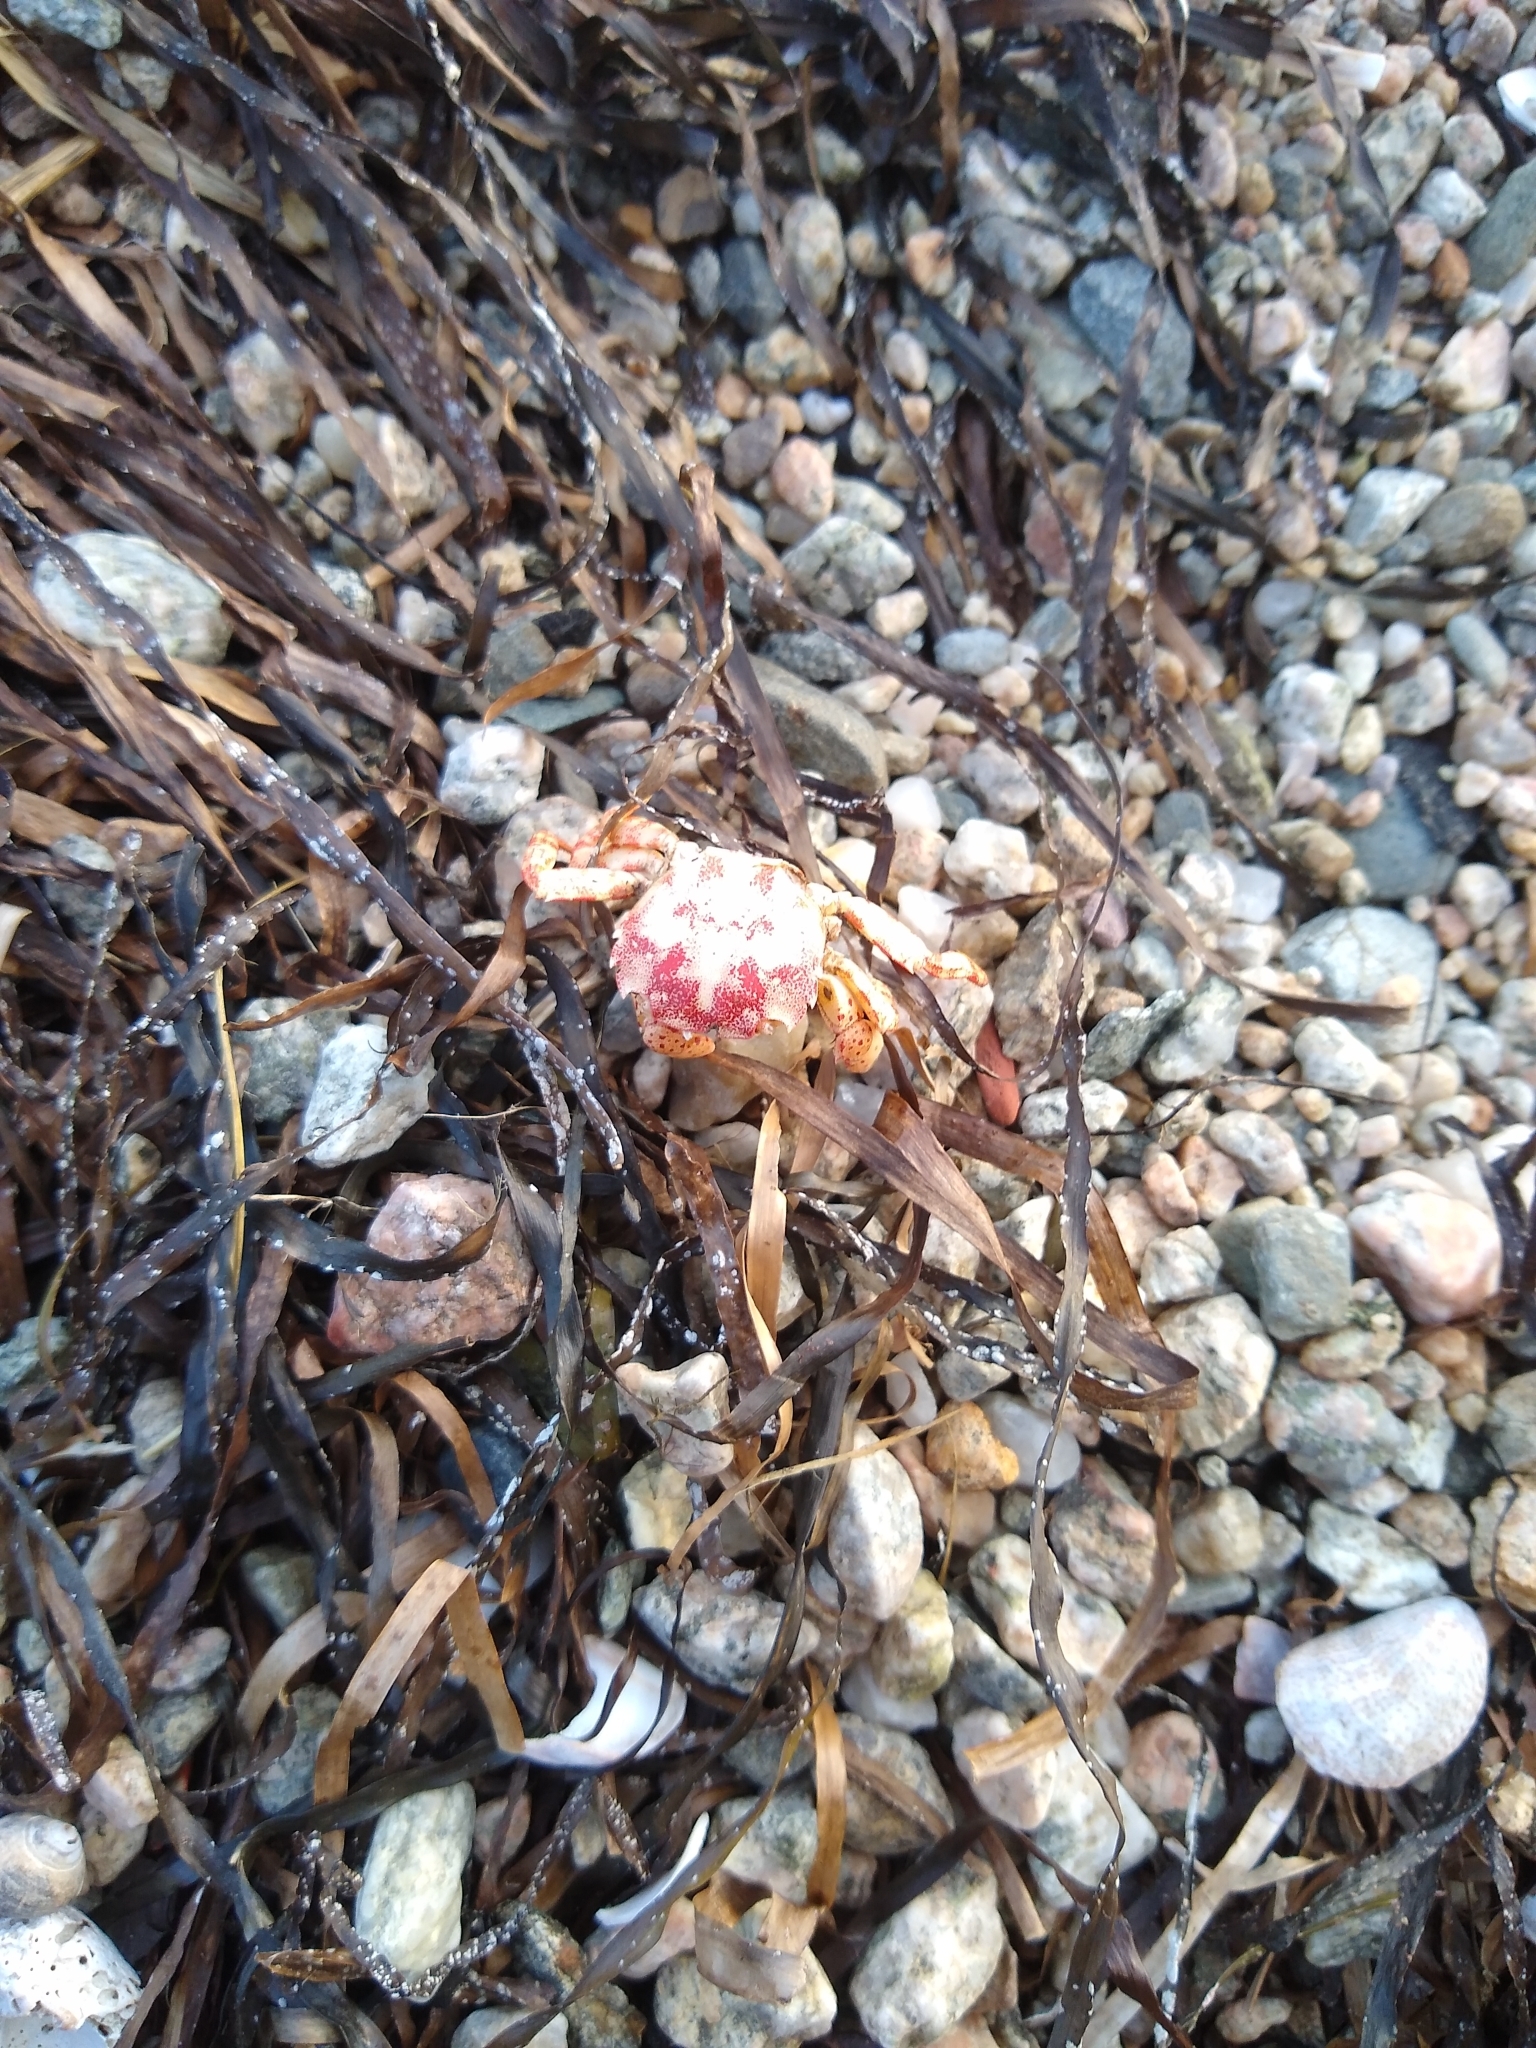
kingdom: Animalia
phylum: Arthropoda
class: Malacostraca
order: Decapoda
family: Varunidae
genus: Hemigrapsus
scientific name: Hemigrapsus sanguineus
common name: Asian shore crab
